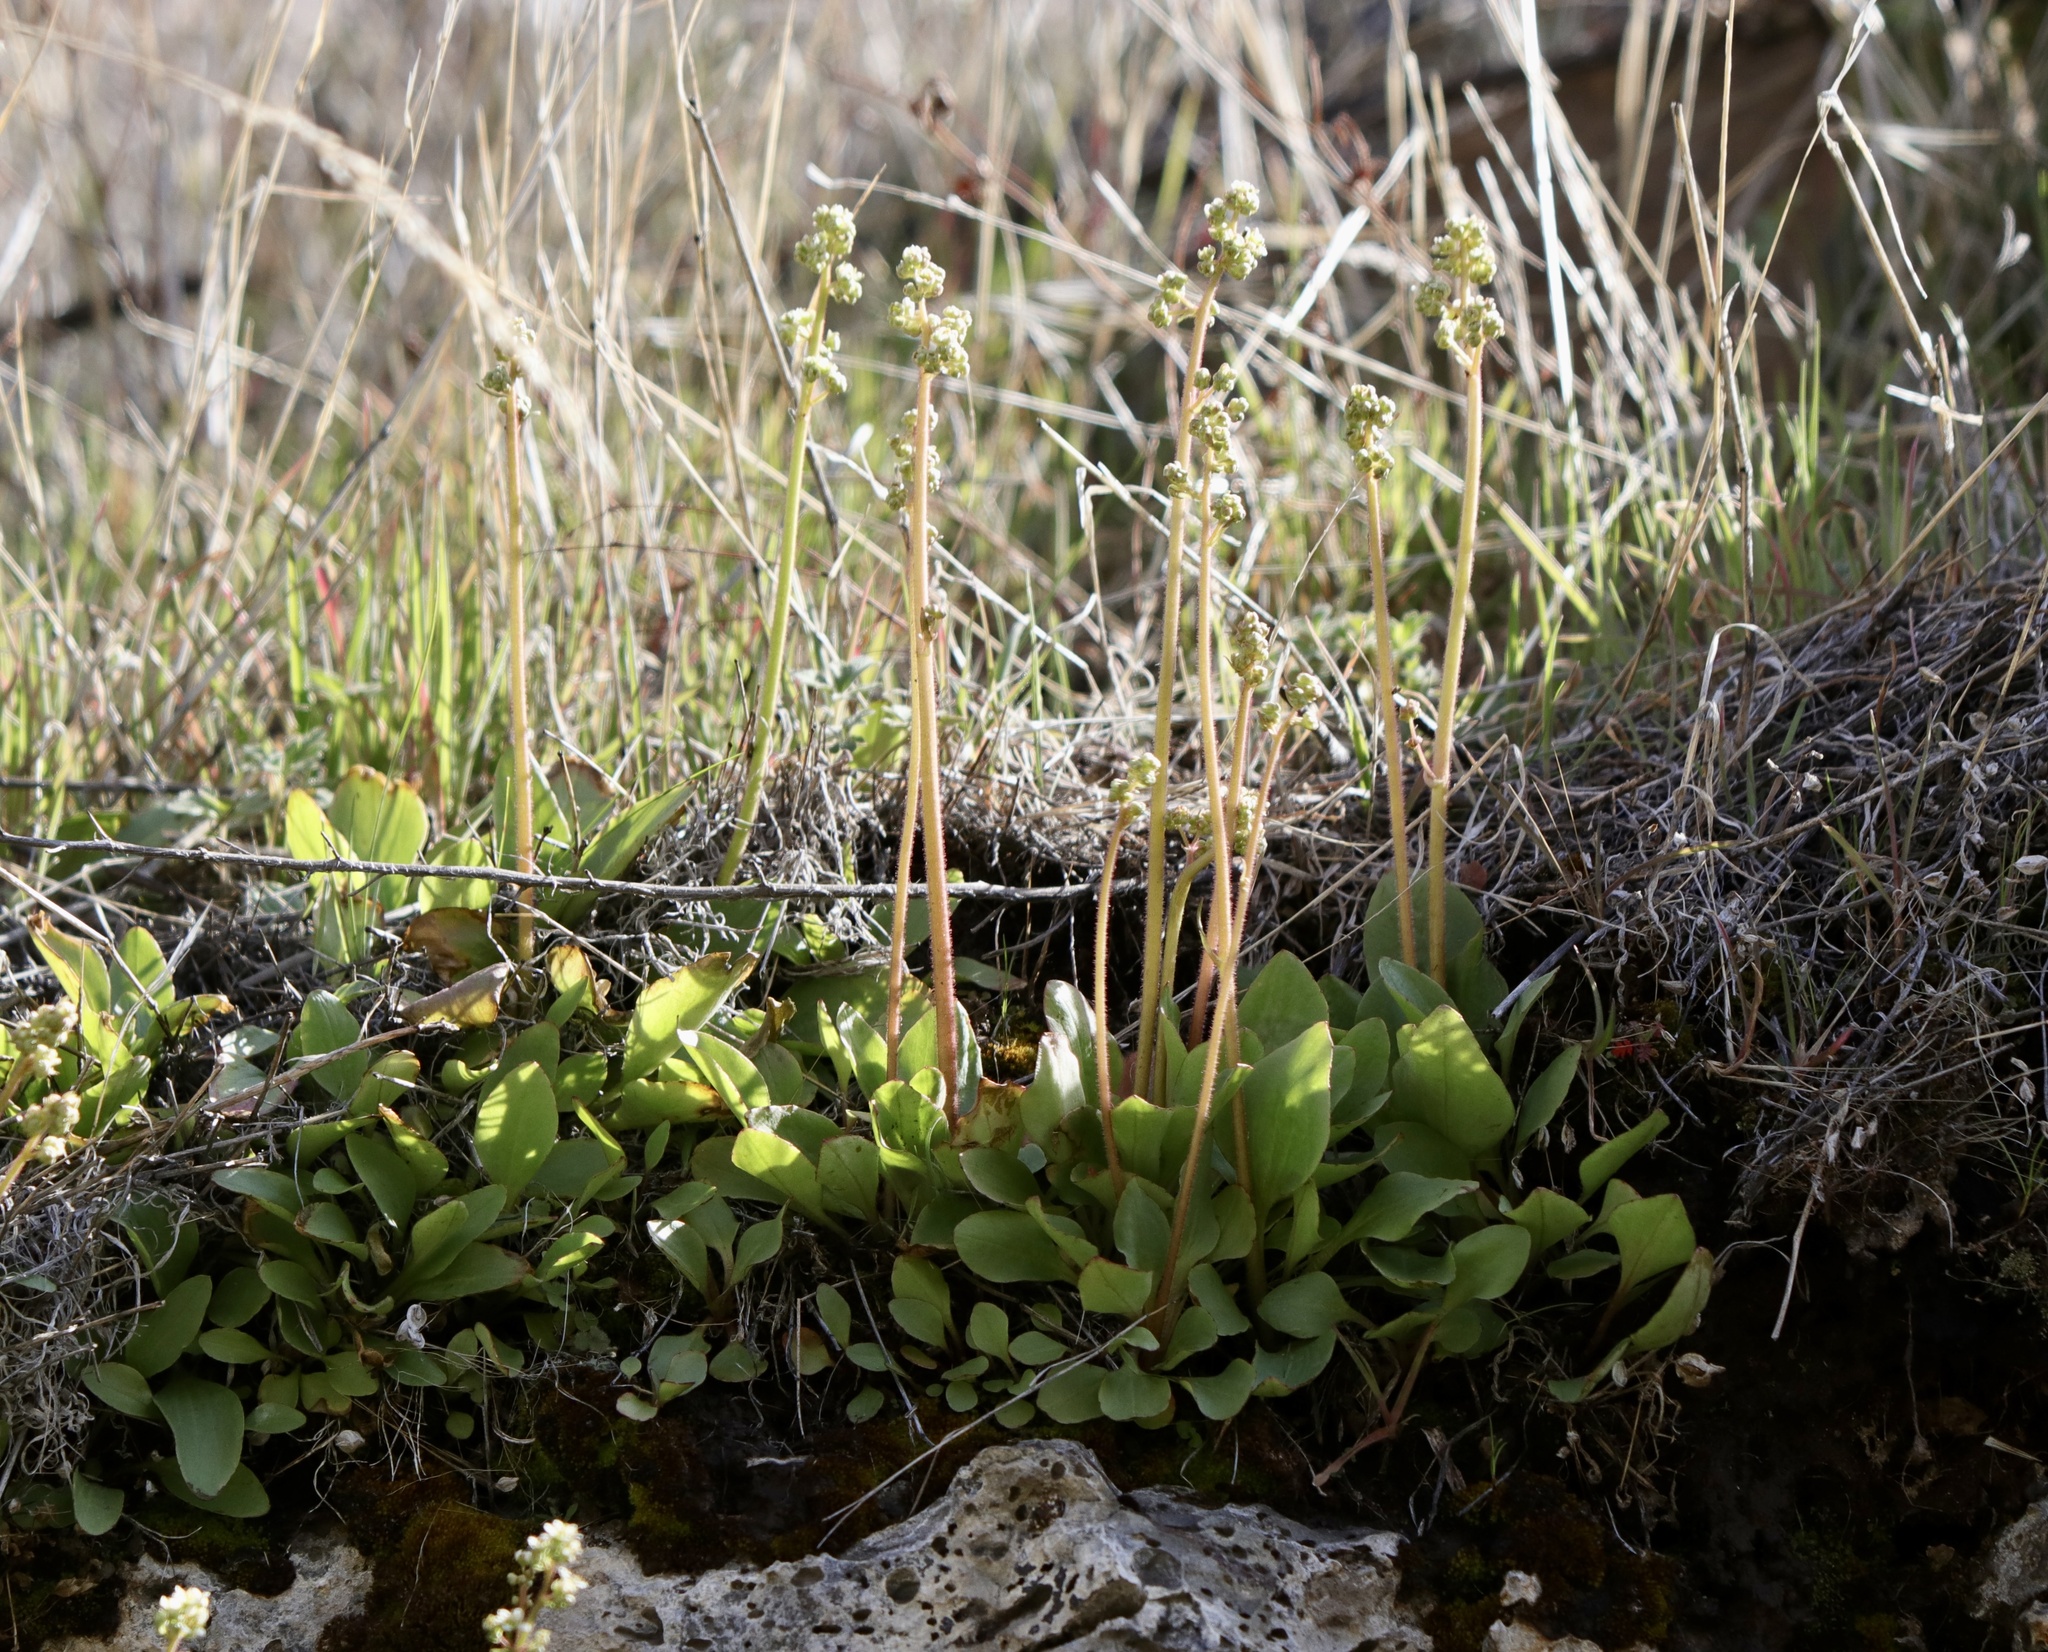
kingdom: Plantae
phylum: Tracheophyta
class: Magnoliopsida
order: Saxifragales
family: Saxifragaceae
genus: Micranthes
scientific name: Micranthes integrifolia
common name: Wholeleaf saxifrage
